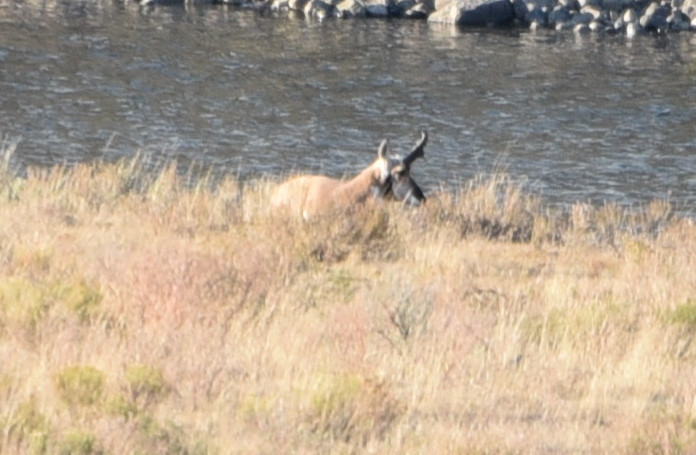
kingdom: Animalia
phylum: Chordata
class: Mammalia
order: Artiodactyla
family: Antilocapridae
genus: Antilocapra
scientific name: Antilocapra americana
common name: Pronghorn
